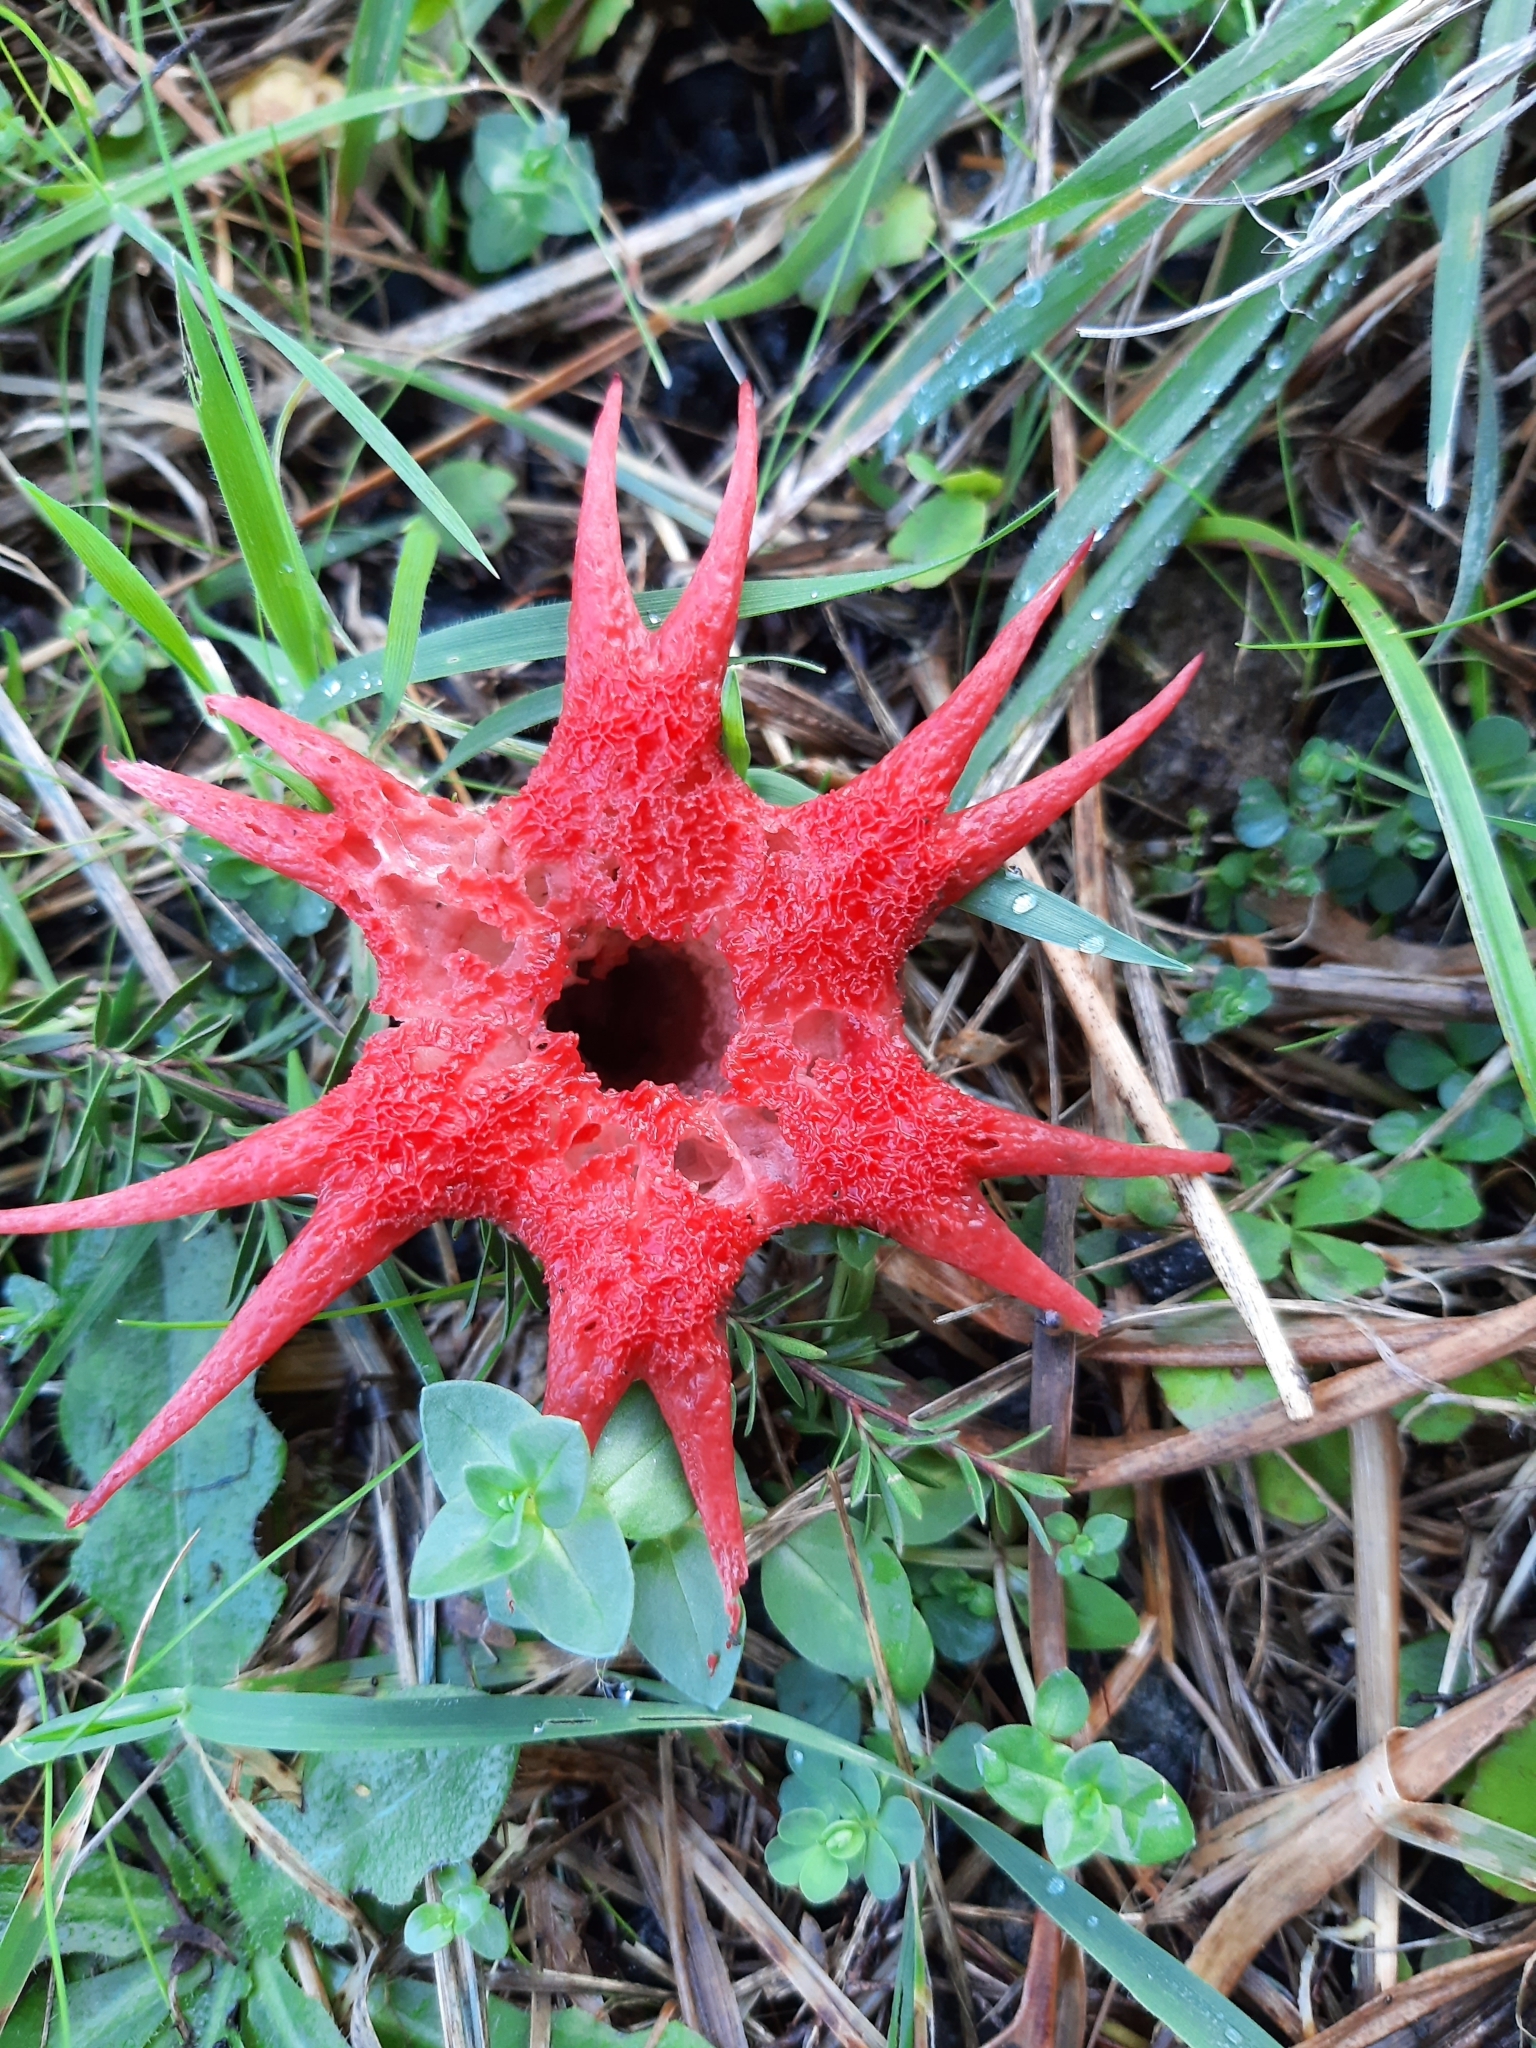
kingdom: Fungi
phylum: Basidiomycota
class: Agaricomycetes
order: Phallales
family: Phallaceae
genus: Aseroe
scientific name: Aseroe rubra
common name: Starfish fungus
